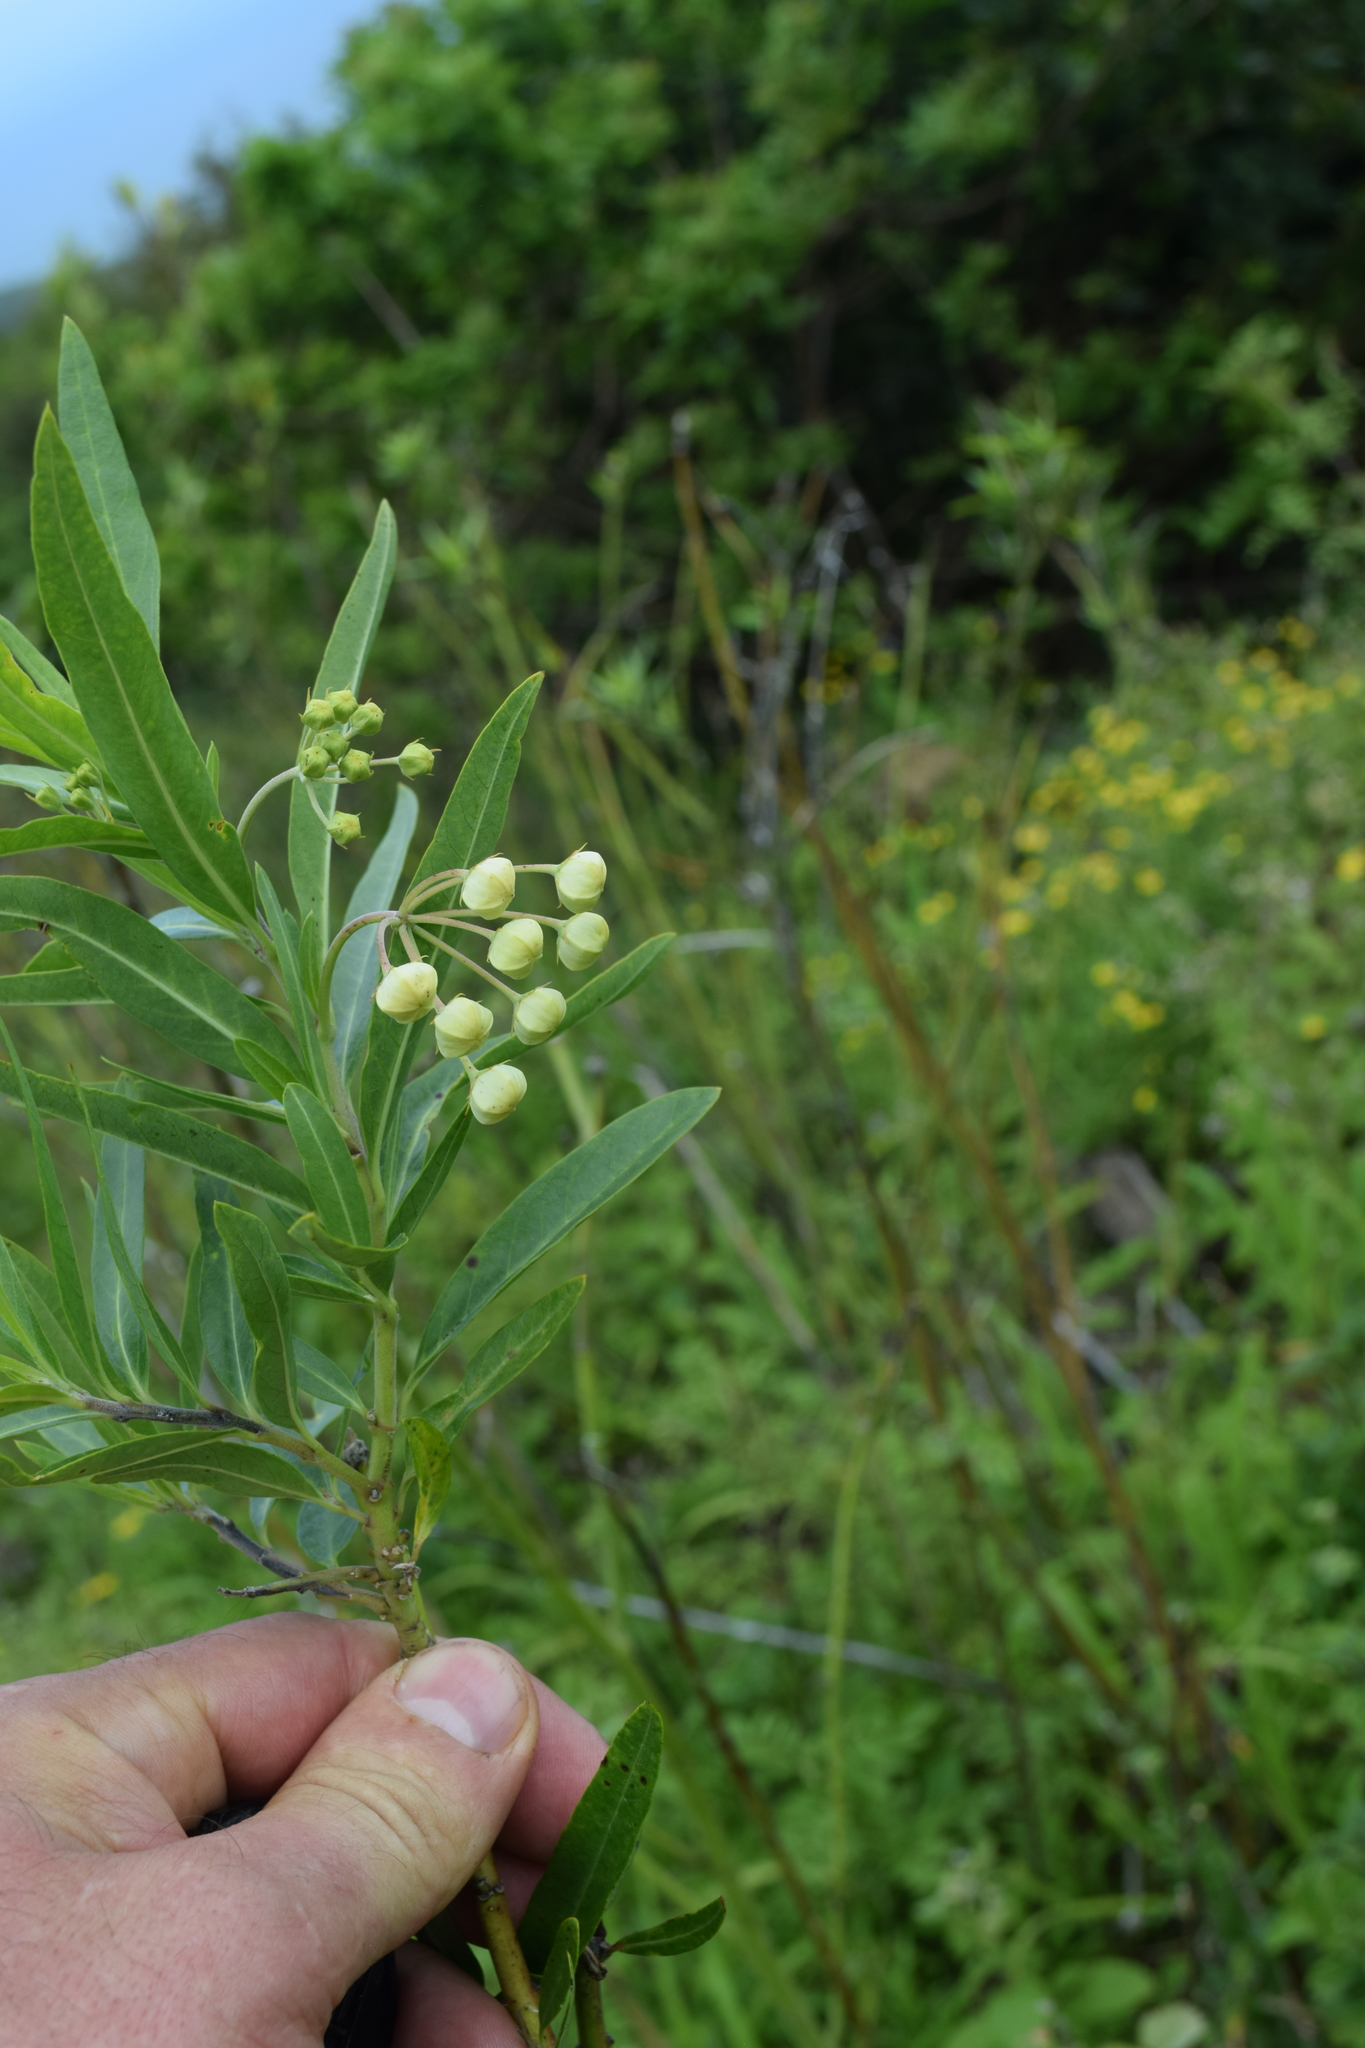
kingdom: Plantae
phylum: Tracheophyta
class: Magnoliopsida
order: Gentianales
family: Apocynaceae
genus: Gomphocarpus
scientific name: Gomphocarpus physocarpus
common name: Balloon cotton bush
